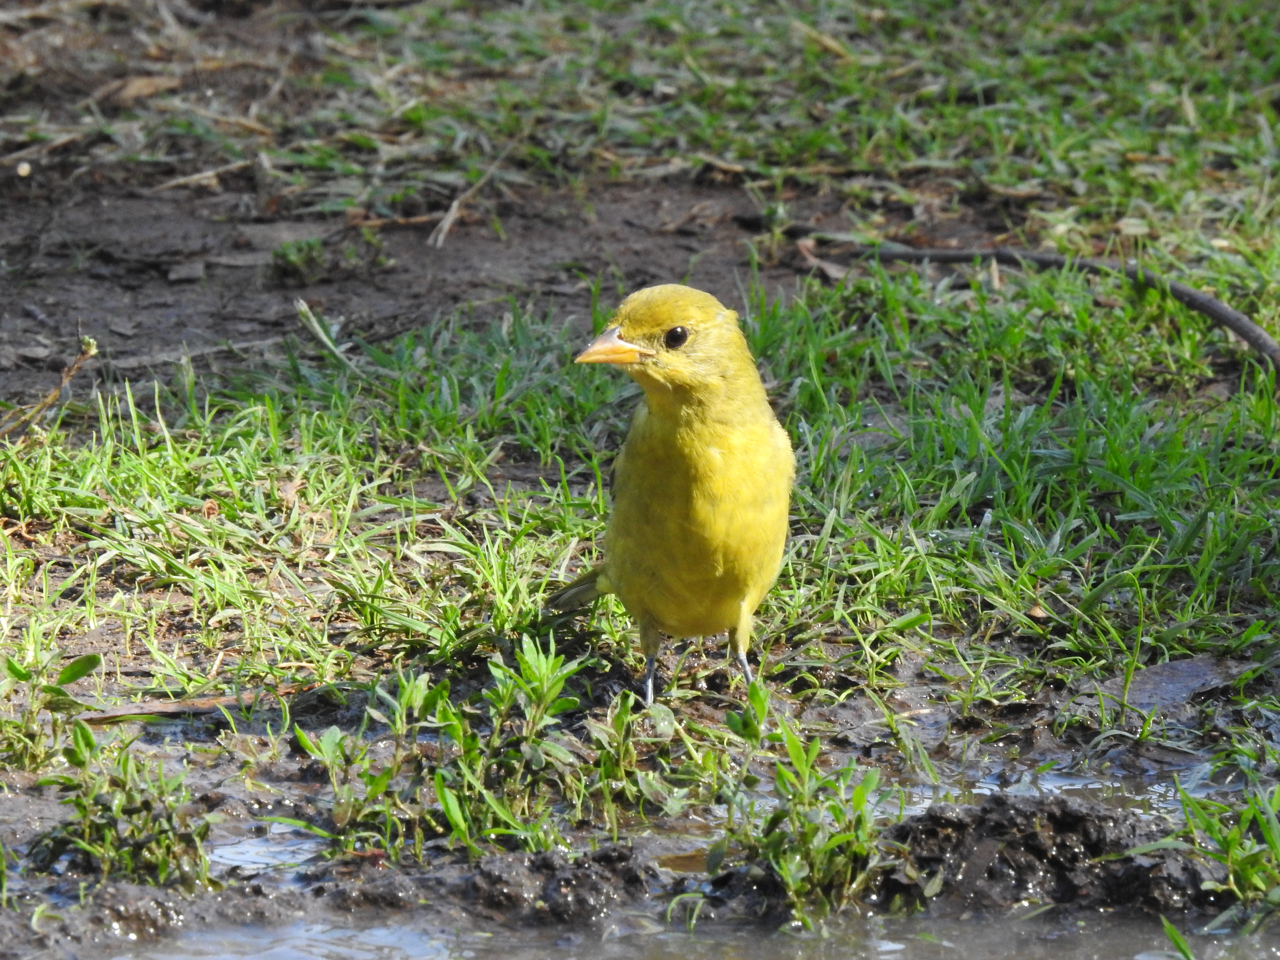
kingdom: Animalia
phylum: Chordata
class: Aves
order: Passeriformes
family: Cardinalidae
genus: Piranga
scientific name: Piranga ludoviciana
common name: Western tanager
